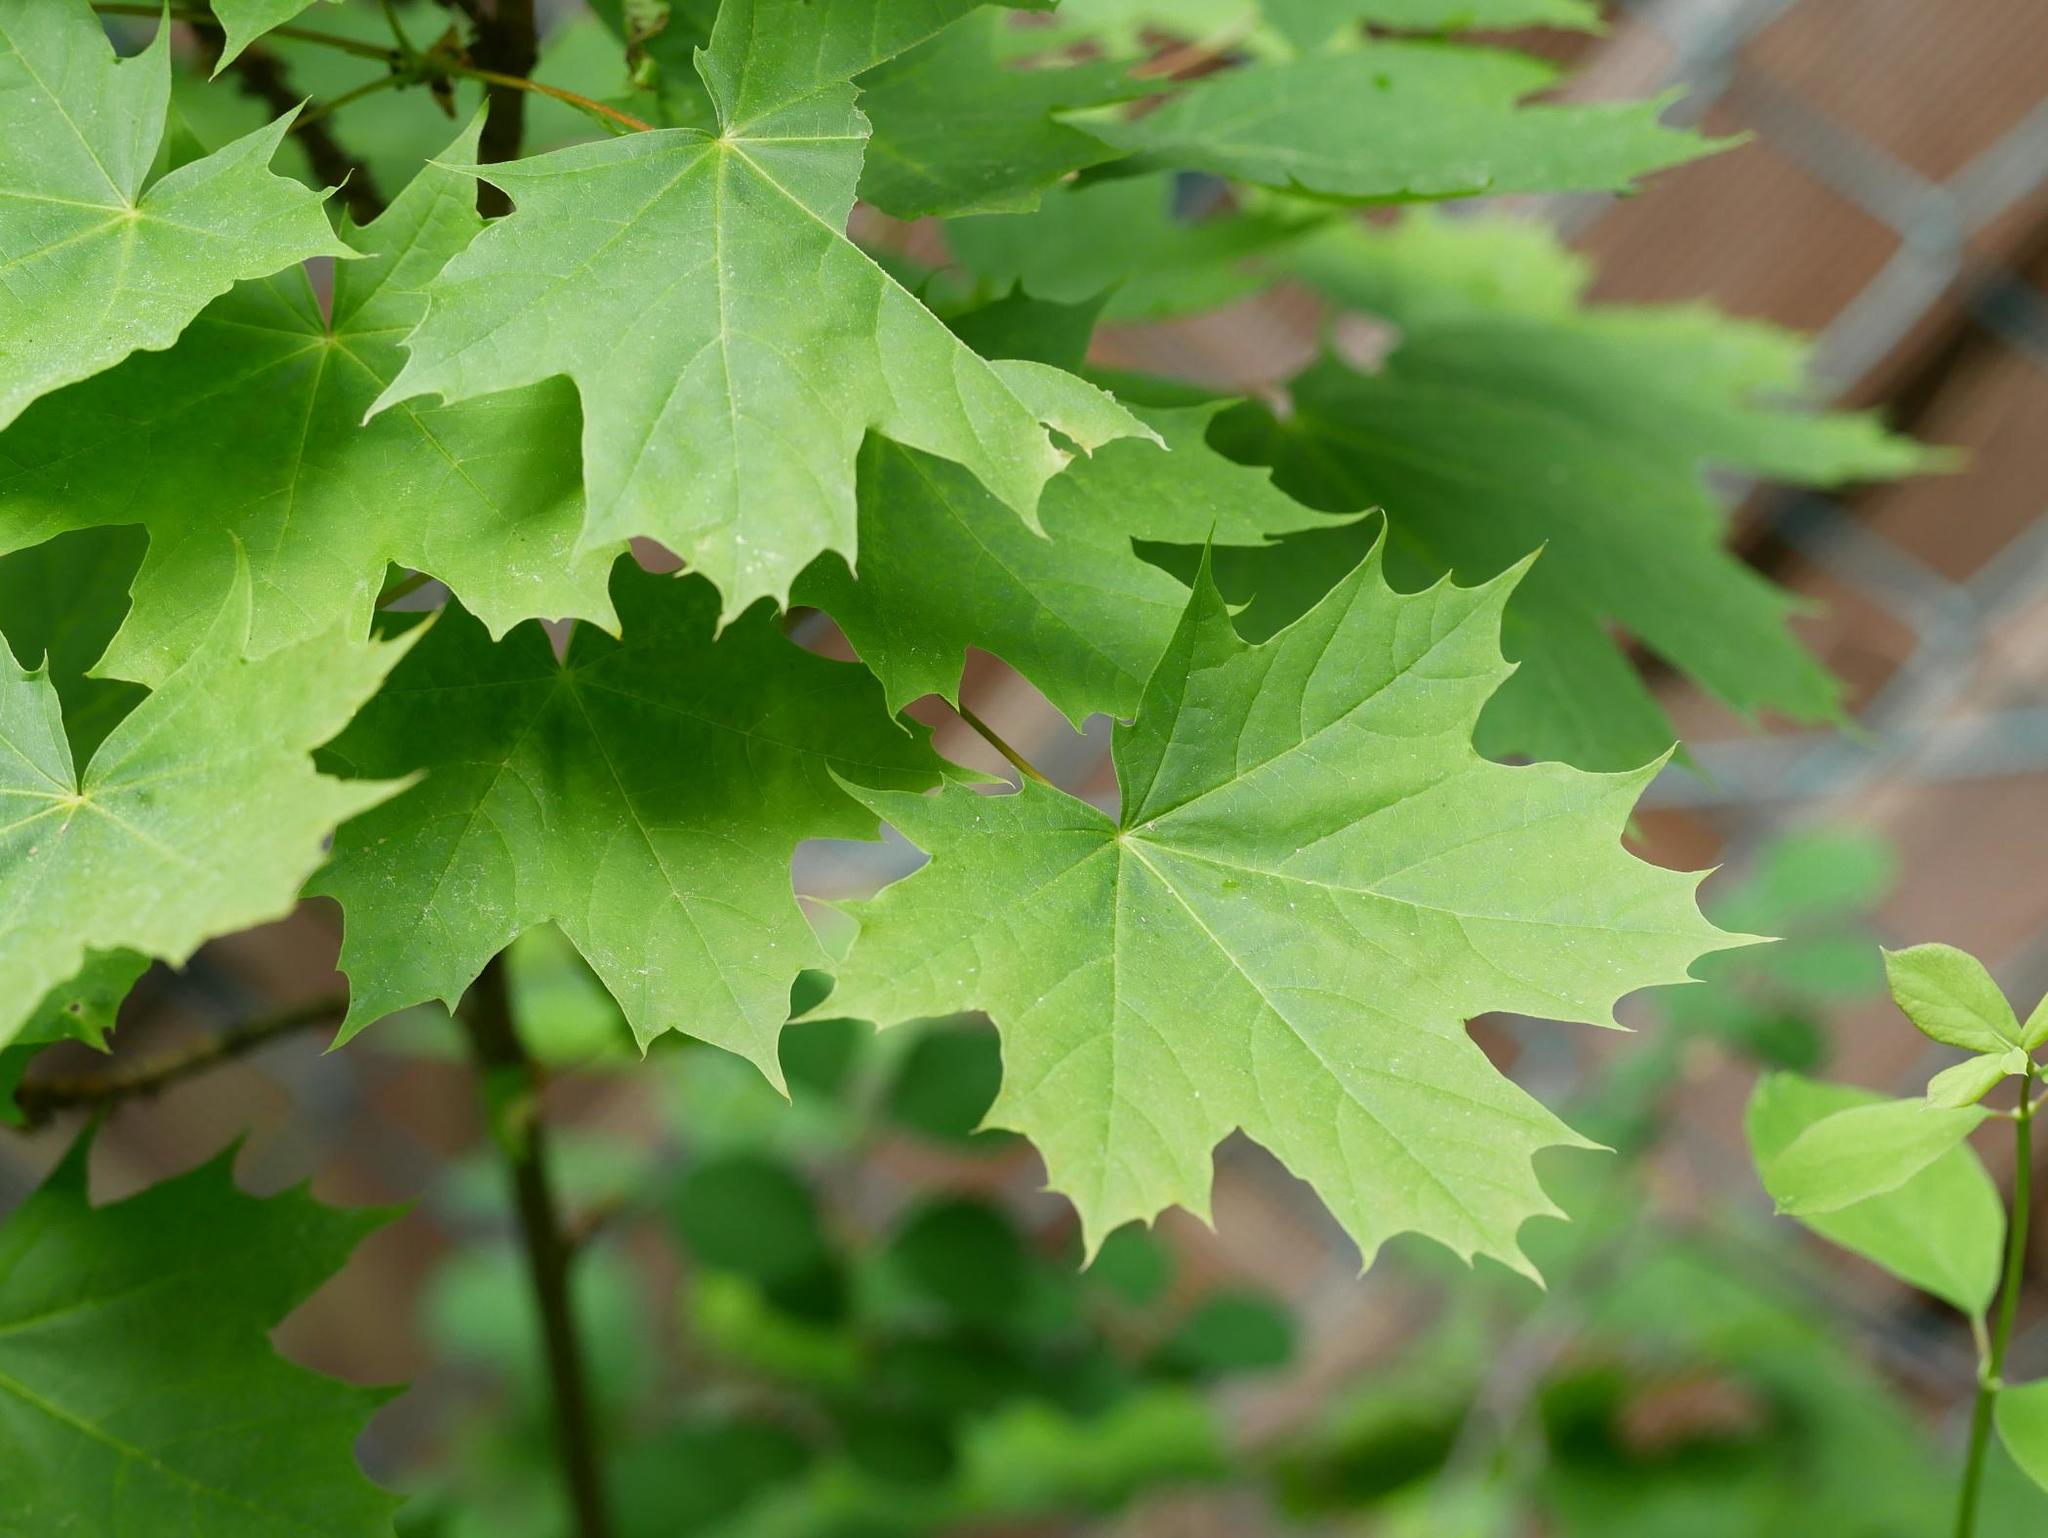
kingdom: Plantae
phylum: Tracheophyta
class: Magnoliopsida
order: Sapindales
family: Sapindaceae
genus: Acer
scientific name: Acer platanoides
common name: Norway maple
